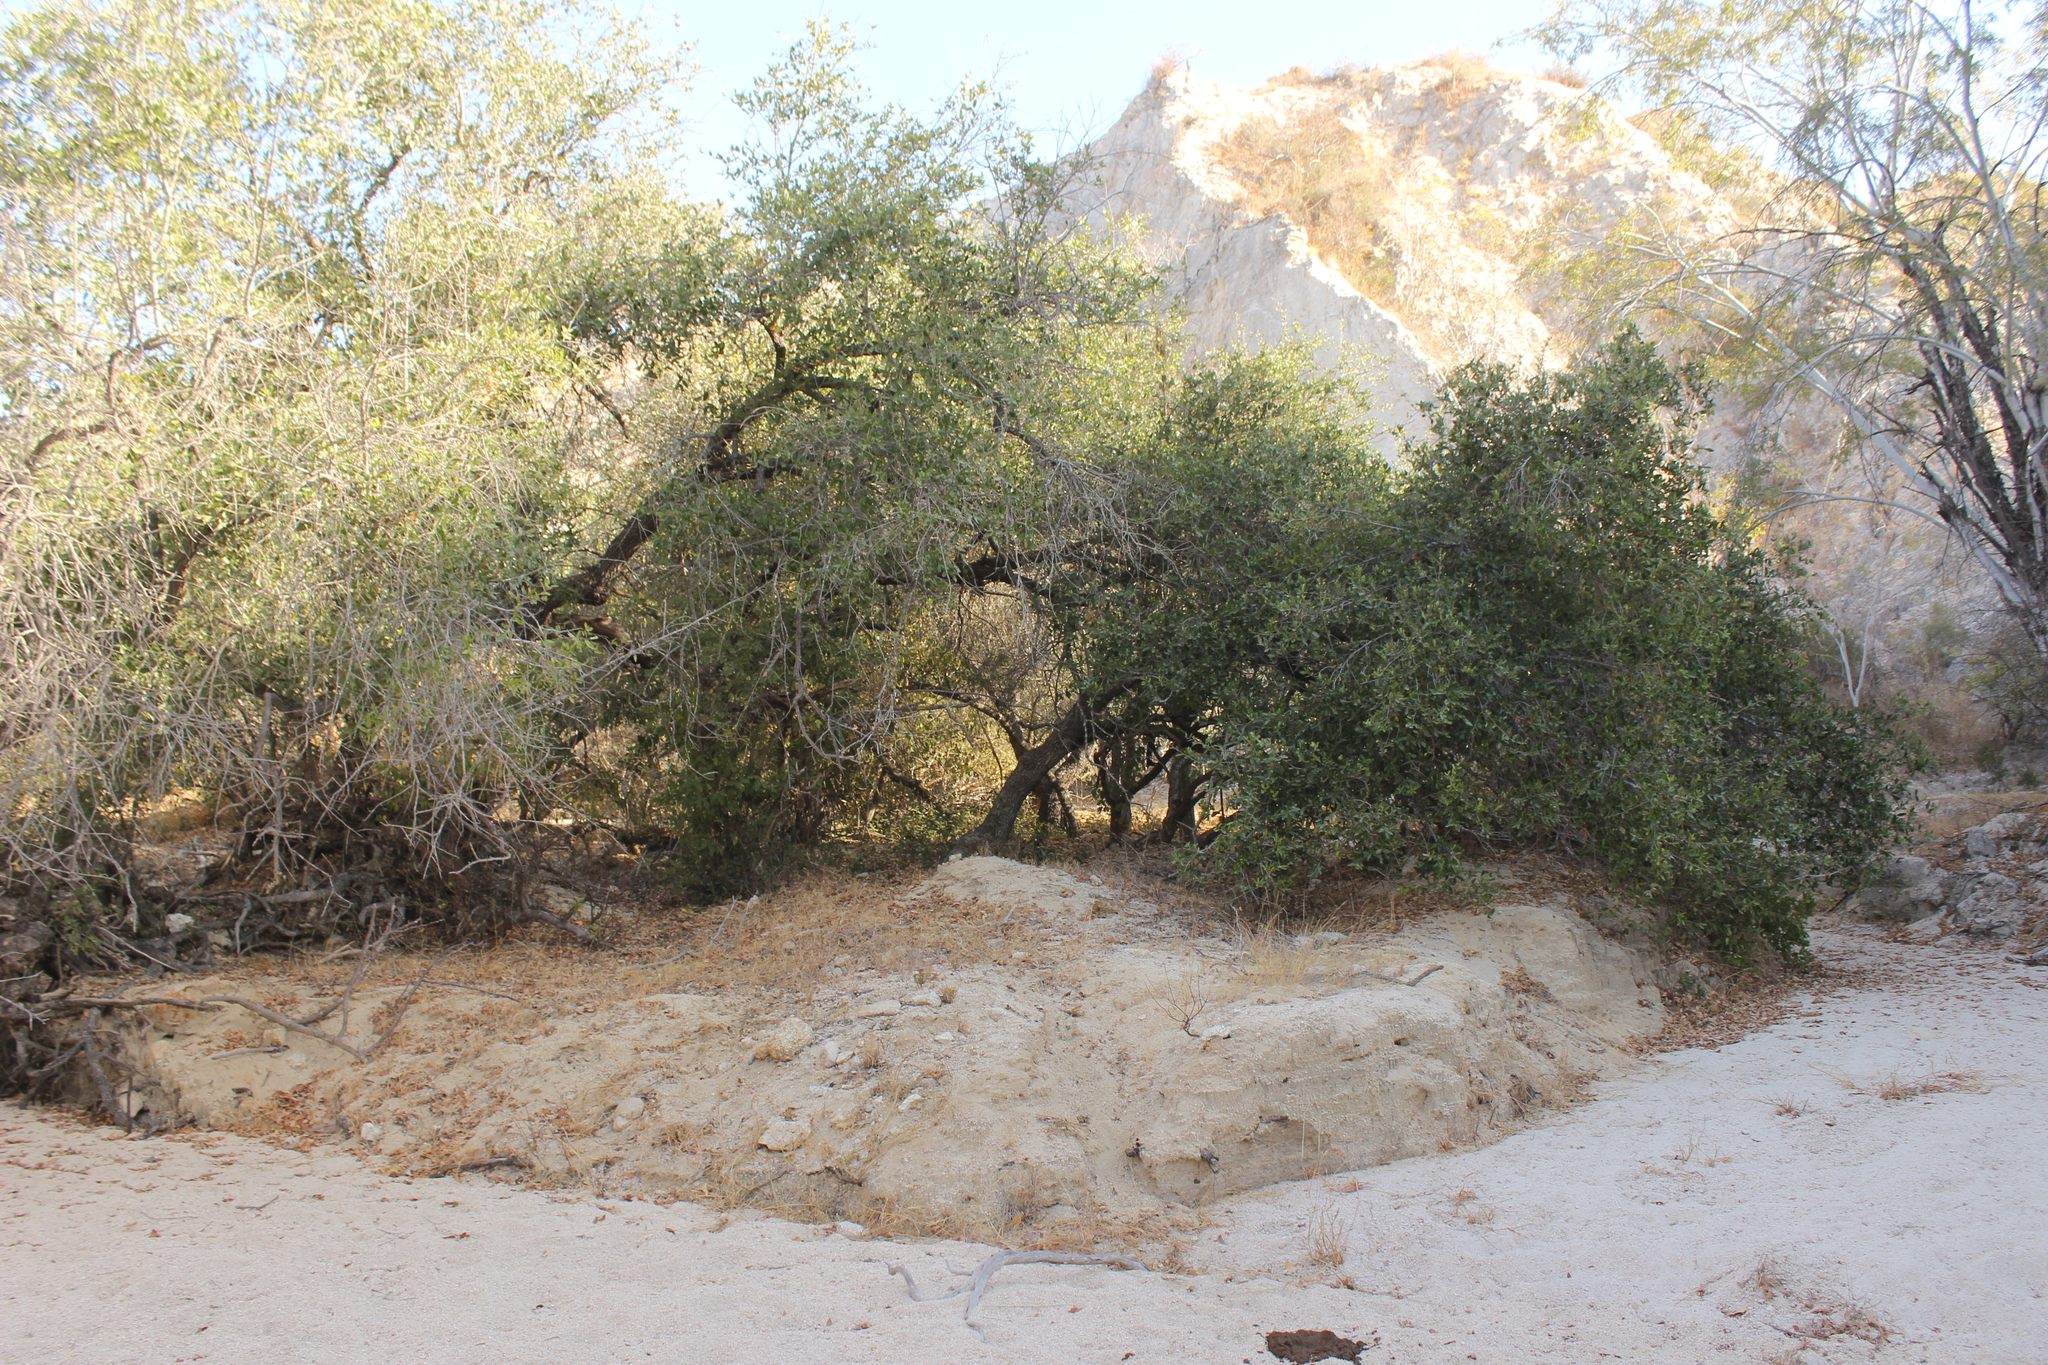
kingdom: Plantae
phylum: Tracheophyta
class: Magnoliopsida
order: Fagales
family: Fagaceae
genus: Quercus
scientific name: Quercus brandegeei
